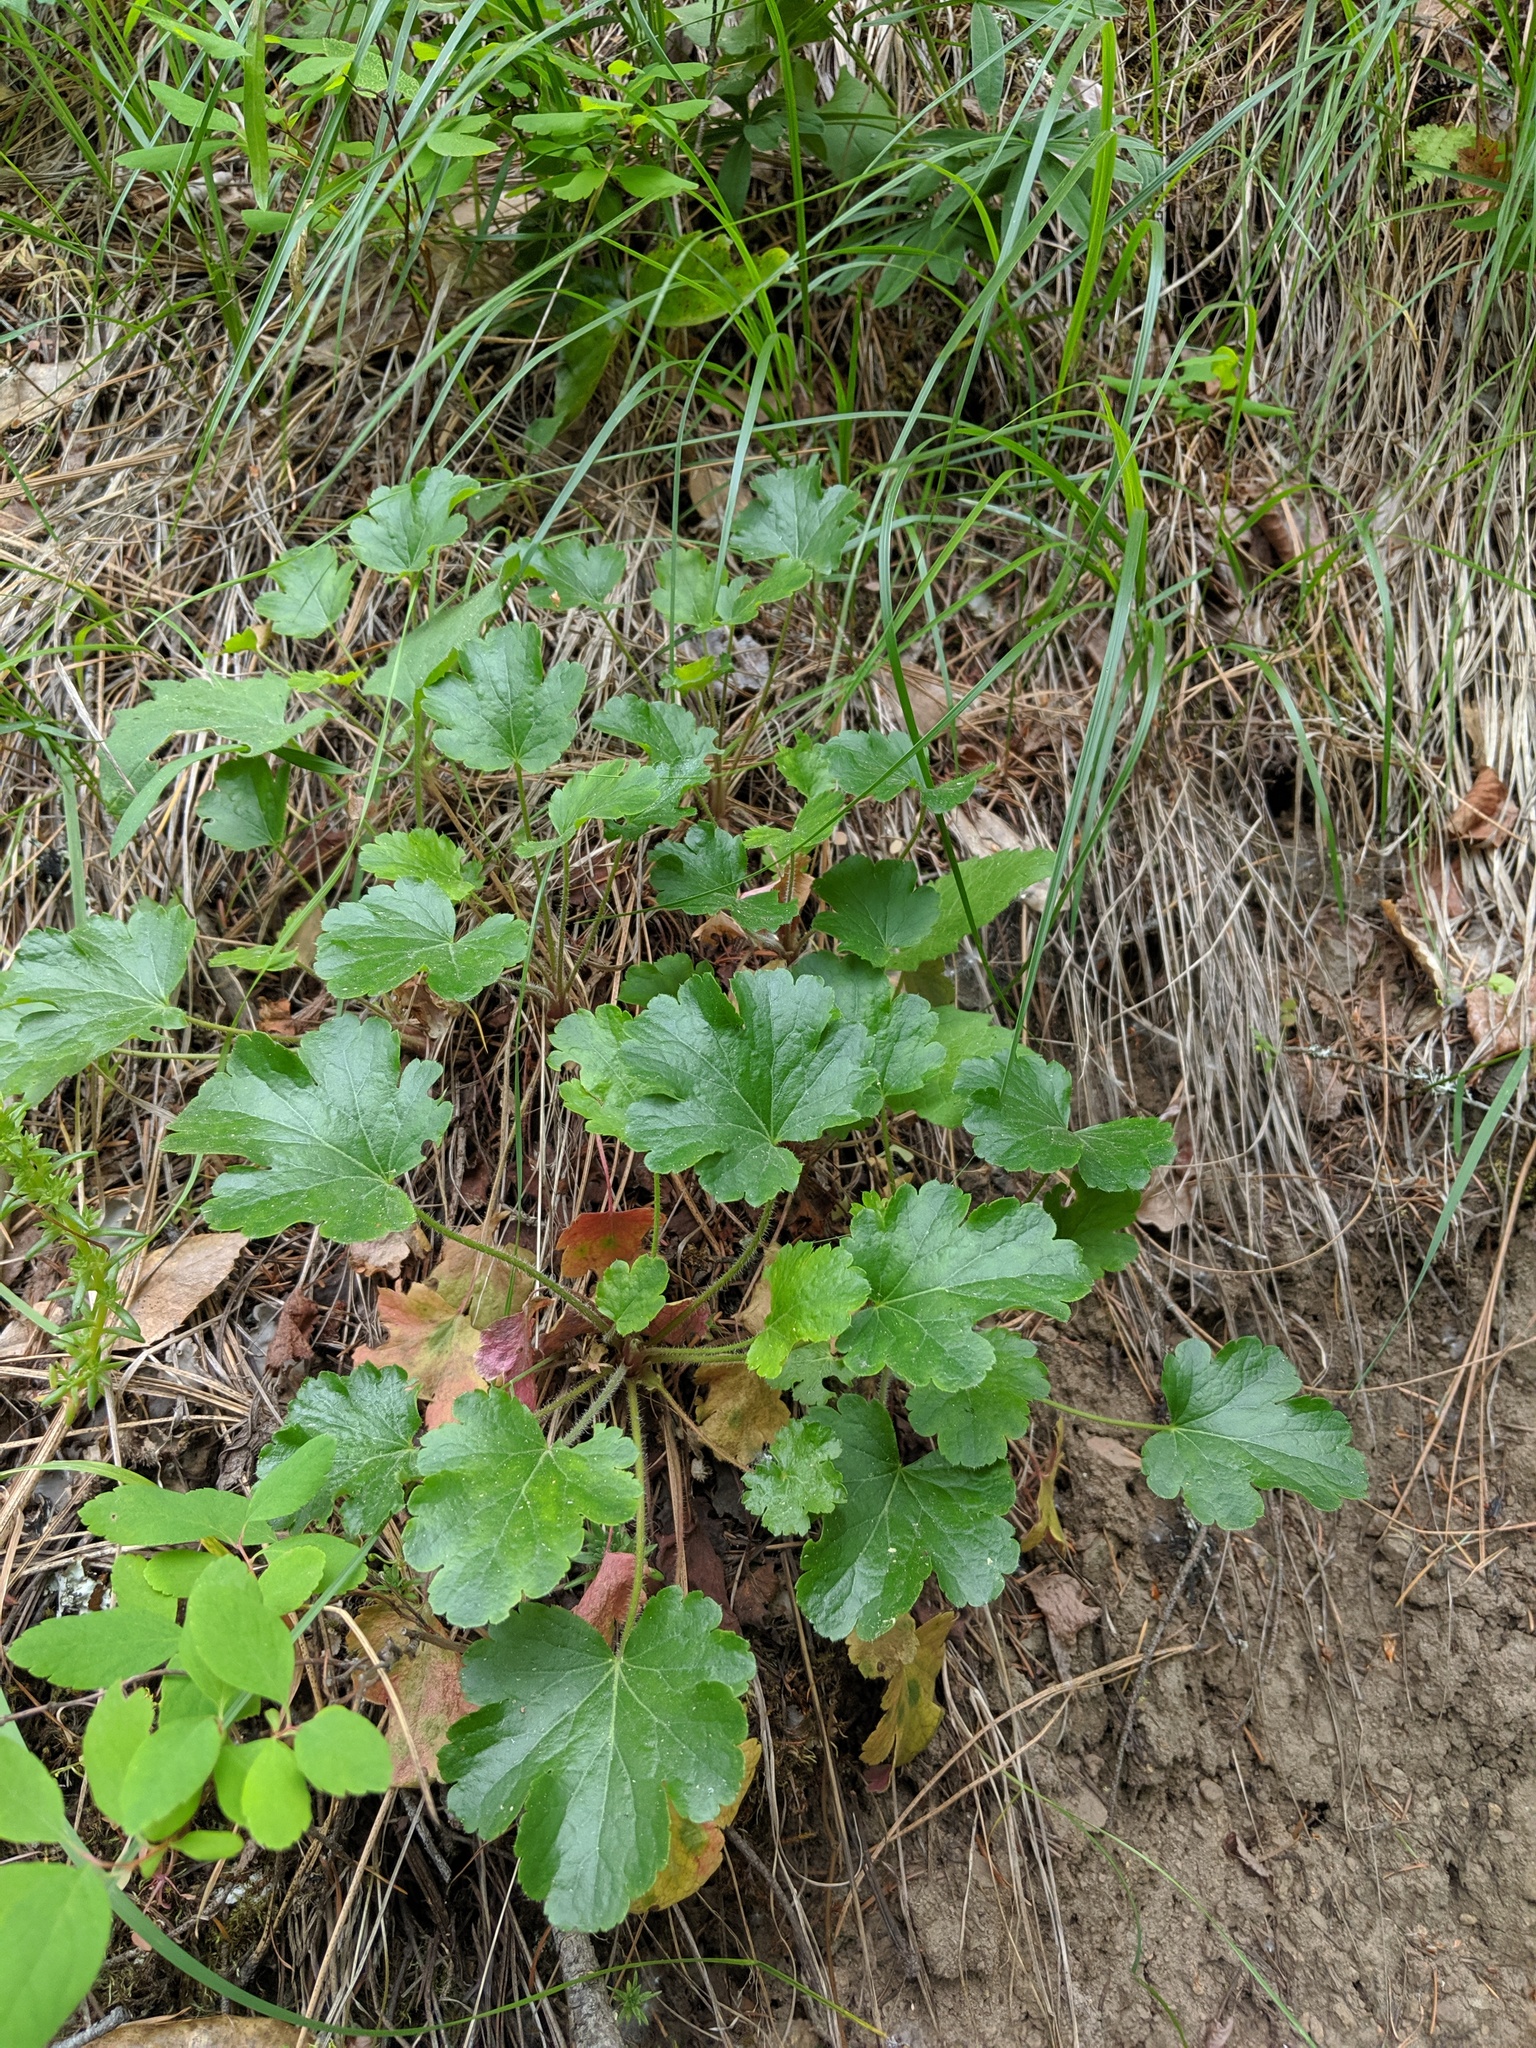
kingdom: Plantae
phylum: Tracheophyta
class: Magnoliopsida
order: Saxifragales
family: Saxifragaceae
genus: Heuchera
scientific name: Heuchera cylindrica
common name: Mat alumroot
